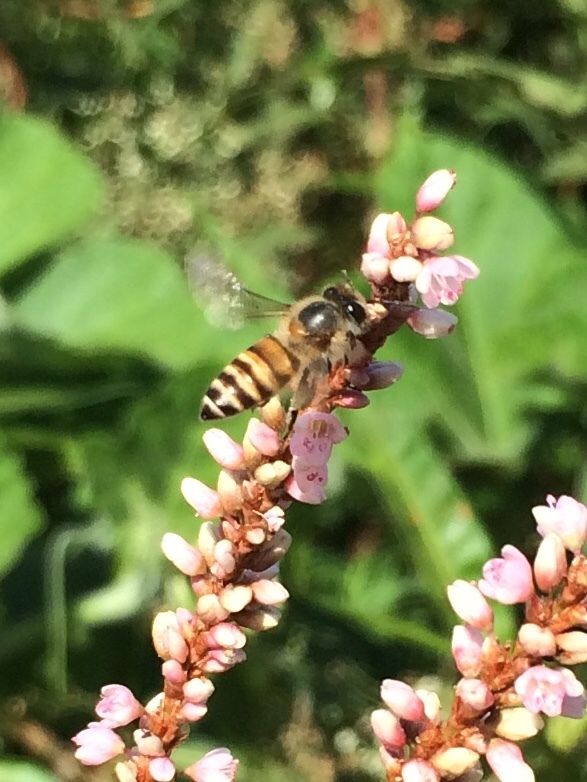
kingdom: Animalia
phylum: Arthropoda
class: Insecta
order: Hymenoptera
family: Apidae
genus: Apis
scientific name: Apis cerana
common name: Honey bee
